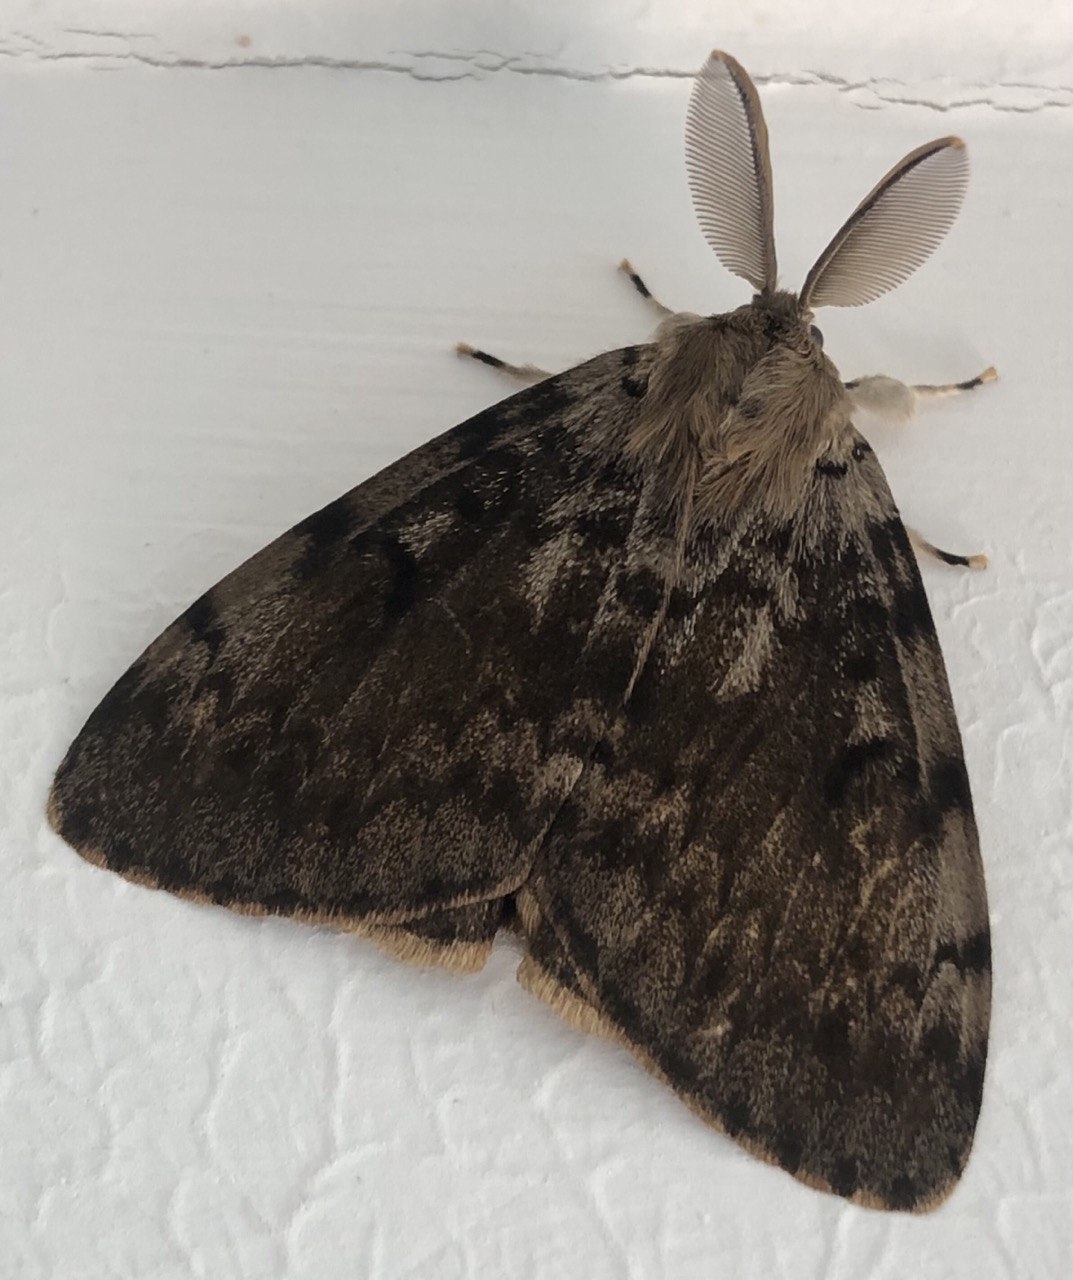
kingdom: Animalia
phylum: Arthropoda
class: Insecta
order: Lepidoptera
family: Erebidae
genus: Lymantria
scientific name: Lymantria dispar
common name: Gypsy moth
